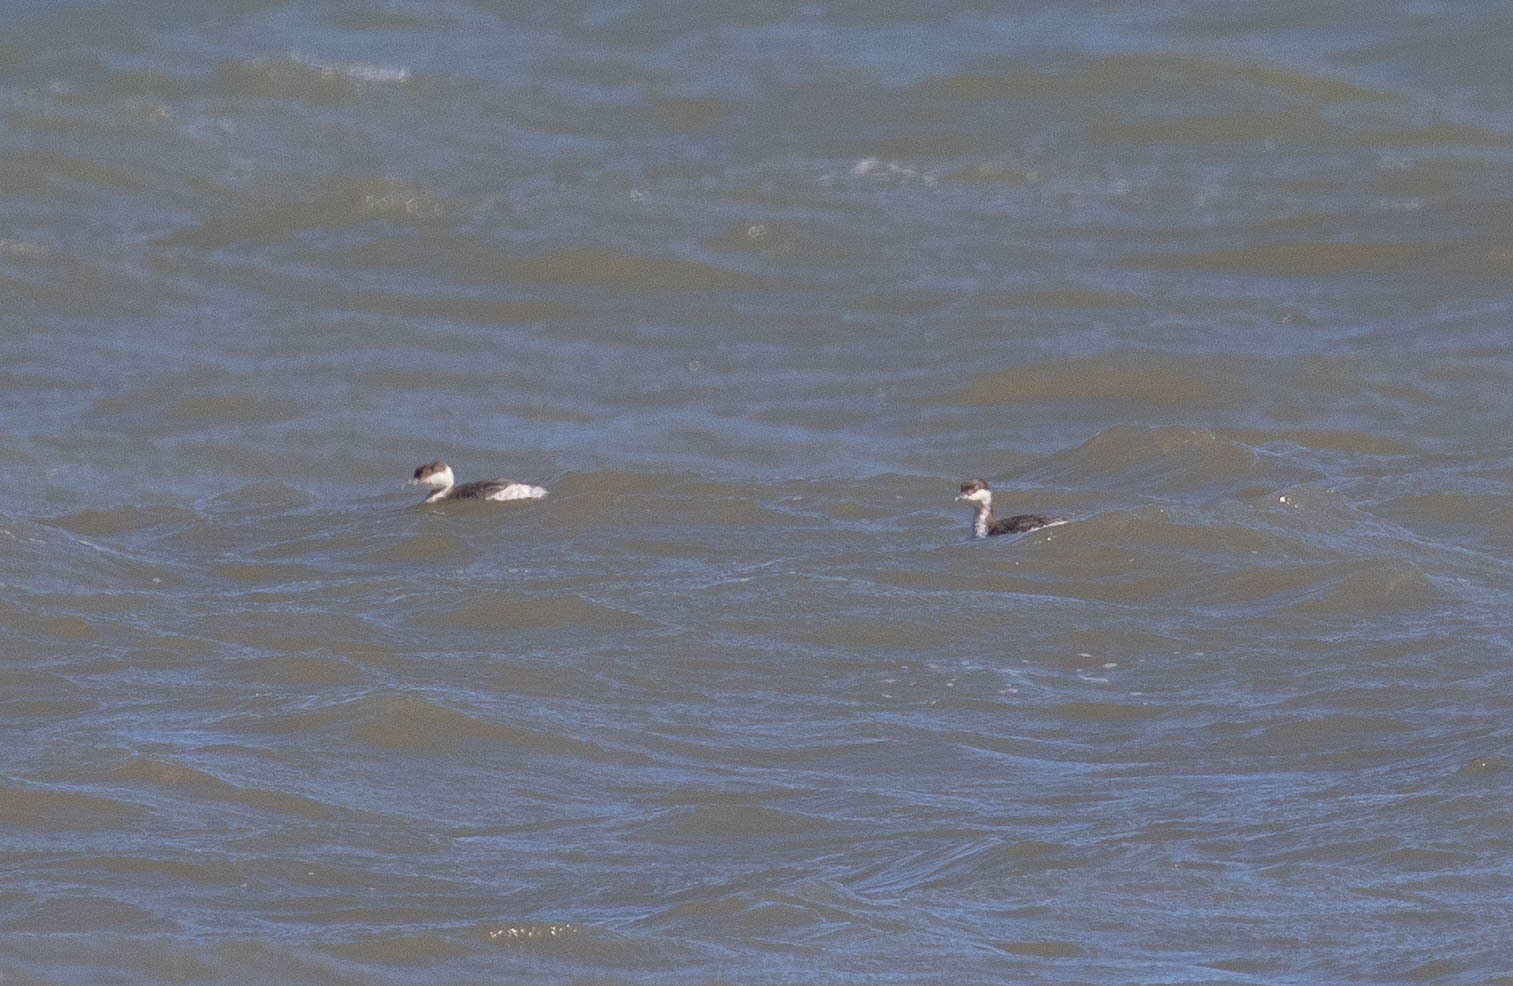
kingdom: Animalia
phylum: Chordata
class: Aves
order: Podicipediformes
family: Podicipedidae
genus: Podiceps
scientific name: Podiceps auritus
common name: Horned grebe
